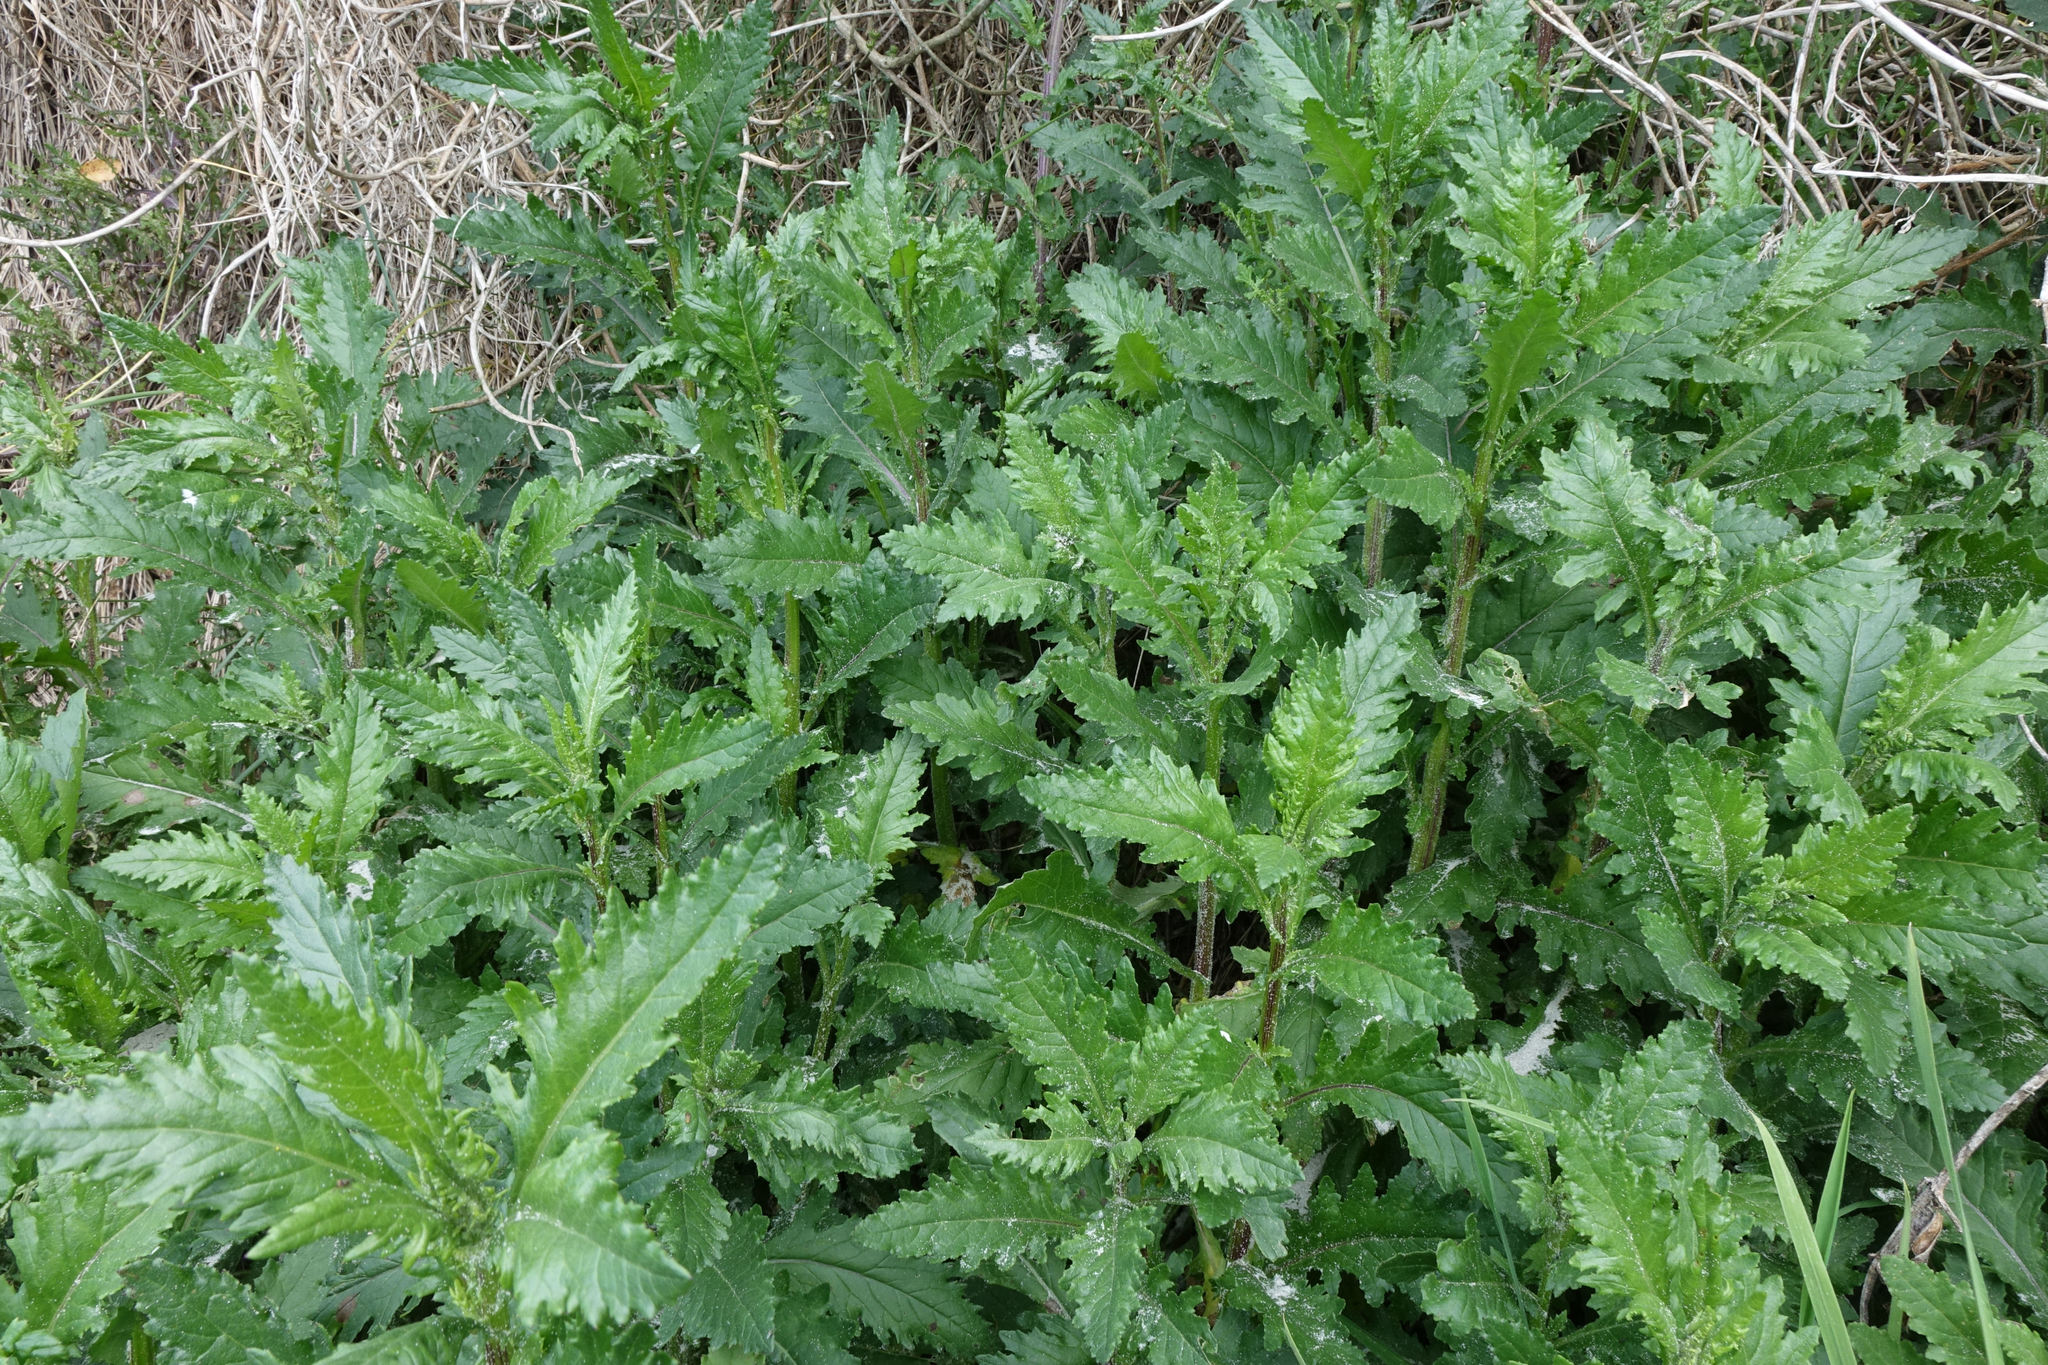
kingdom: Plantae
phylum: Tracheophyta
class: Magnoliopsida
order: Asterales
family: Asteraceae
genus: Senecio
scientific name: Senecio biserratus
